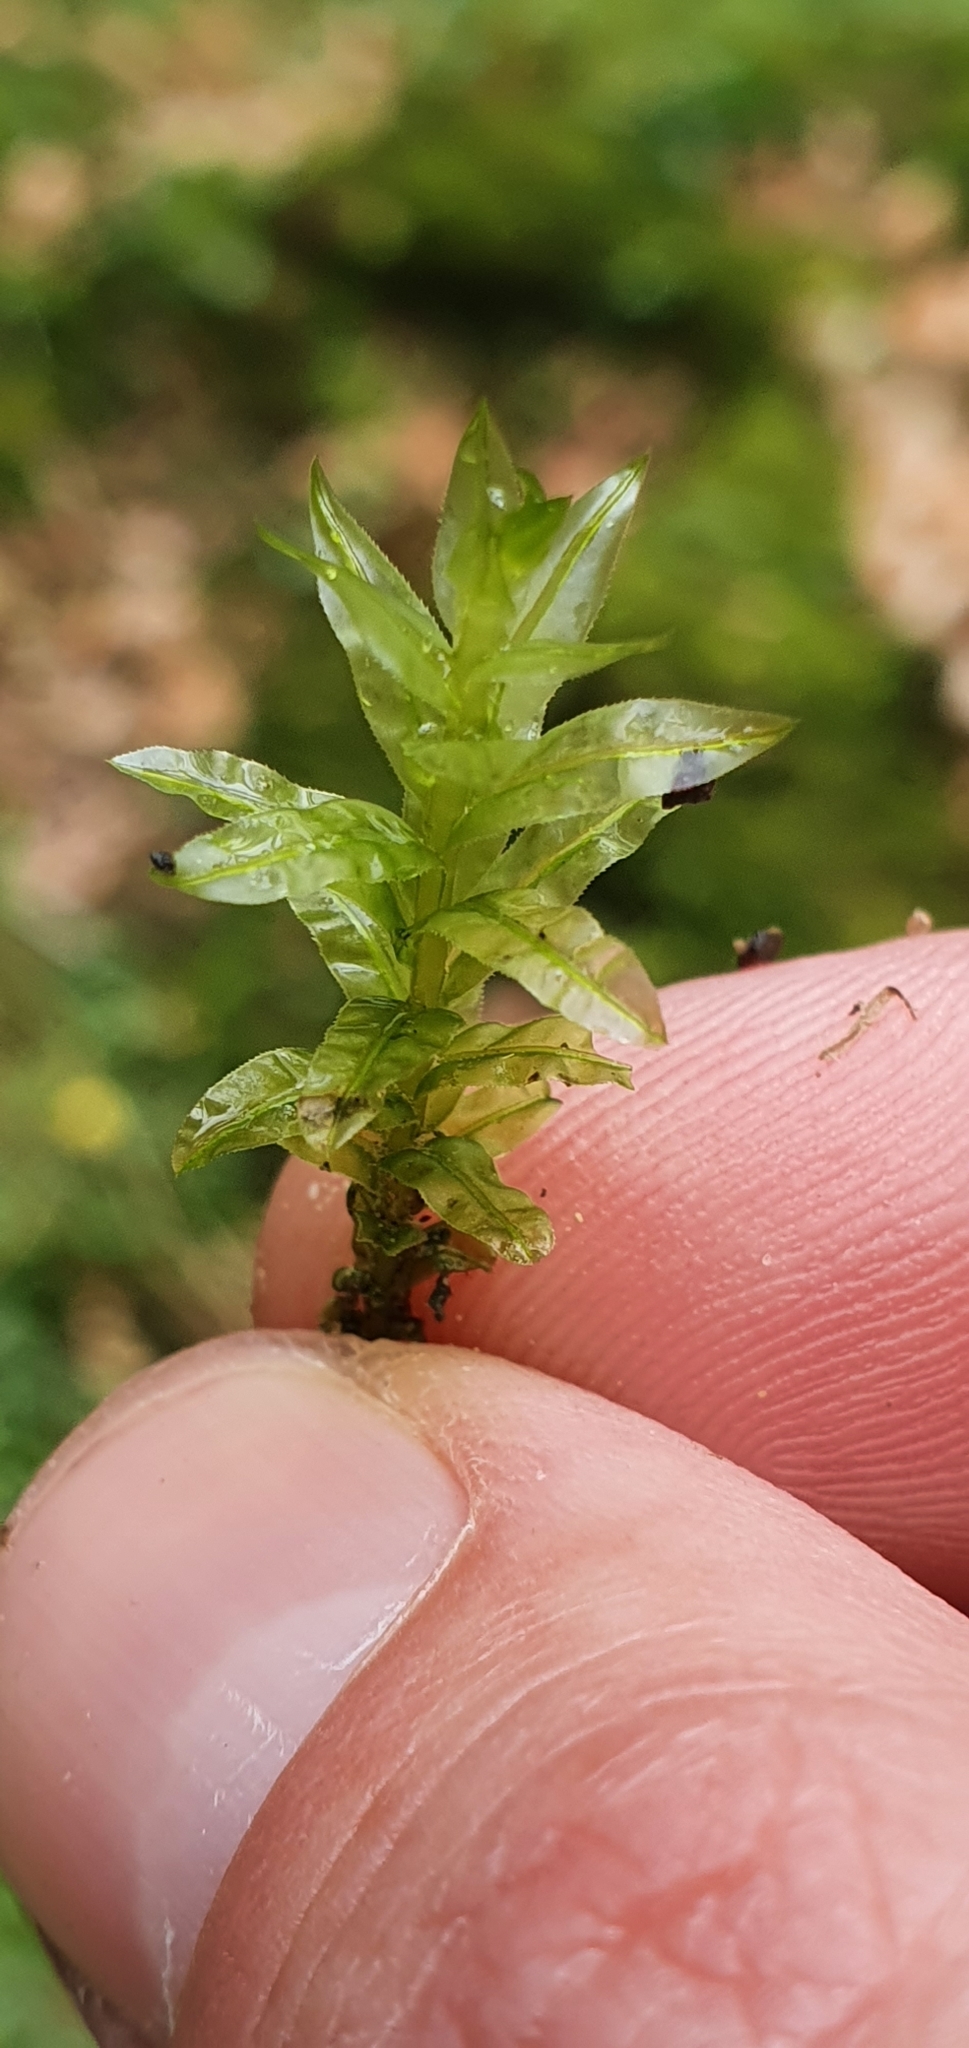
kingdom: Plantae
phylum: Bryophyta
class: Bryopsida
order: Bryales
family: Mniaceae
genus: Plagiomnium
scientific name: Plagiomnium undulatum
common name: Hart's-tongue thyme-moss
